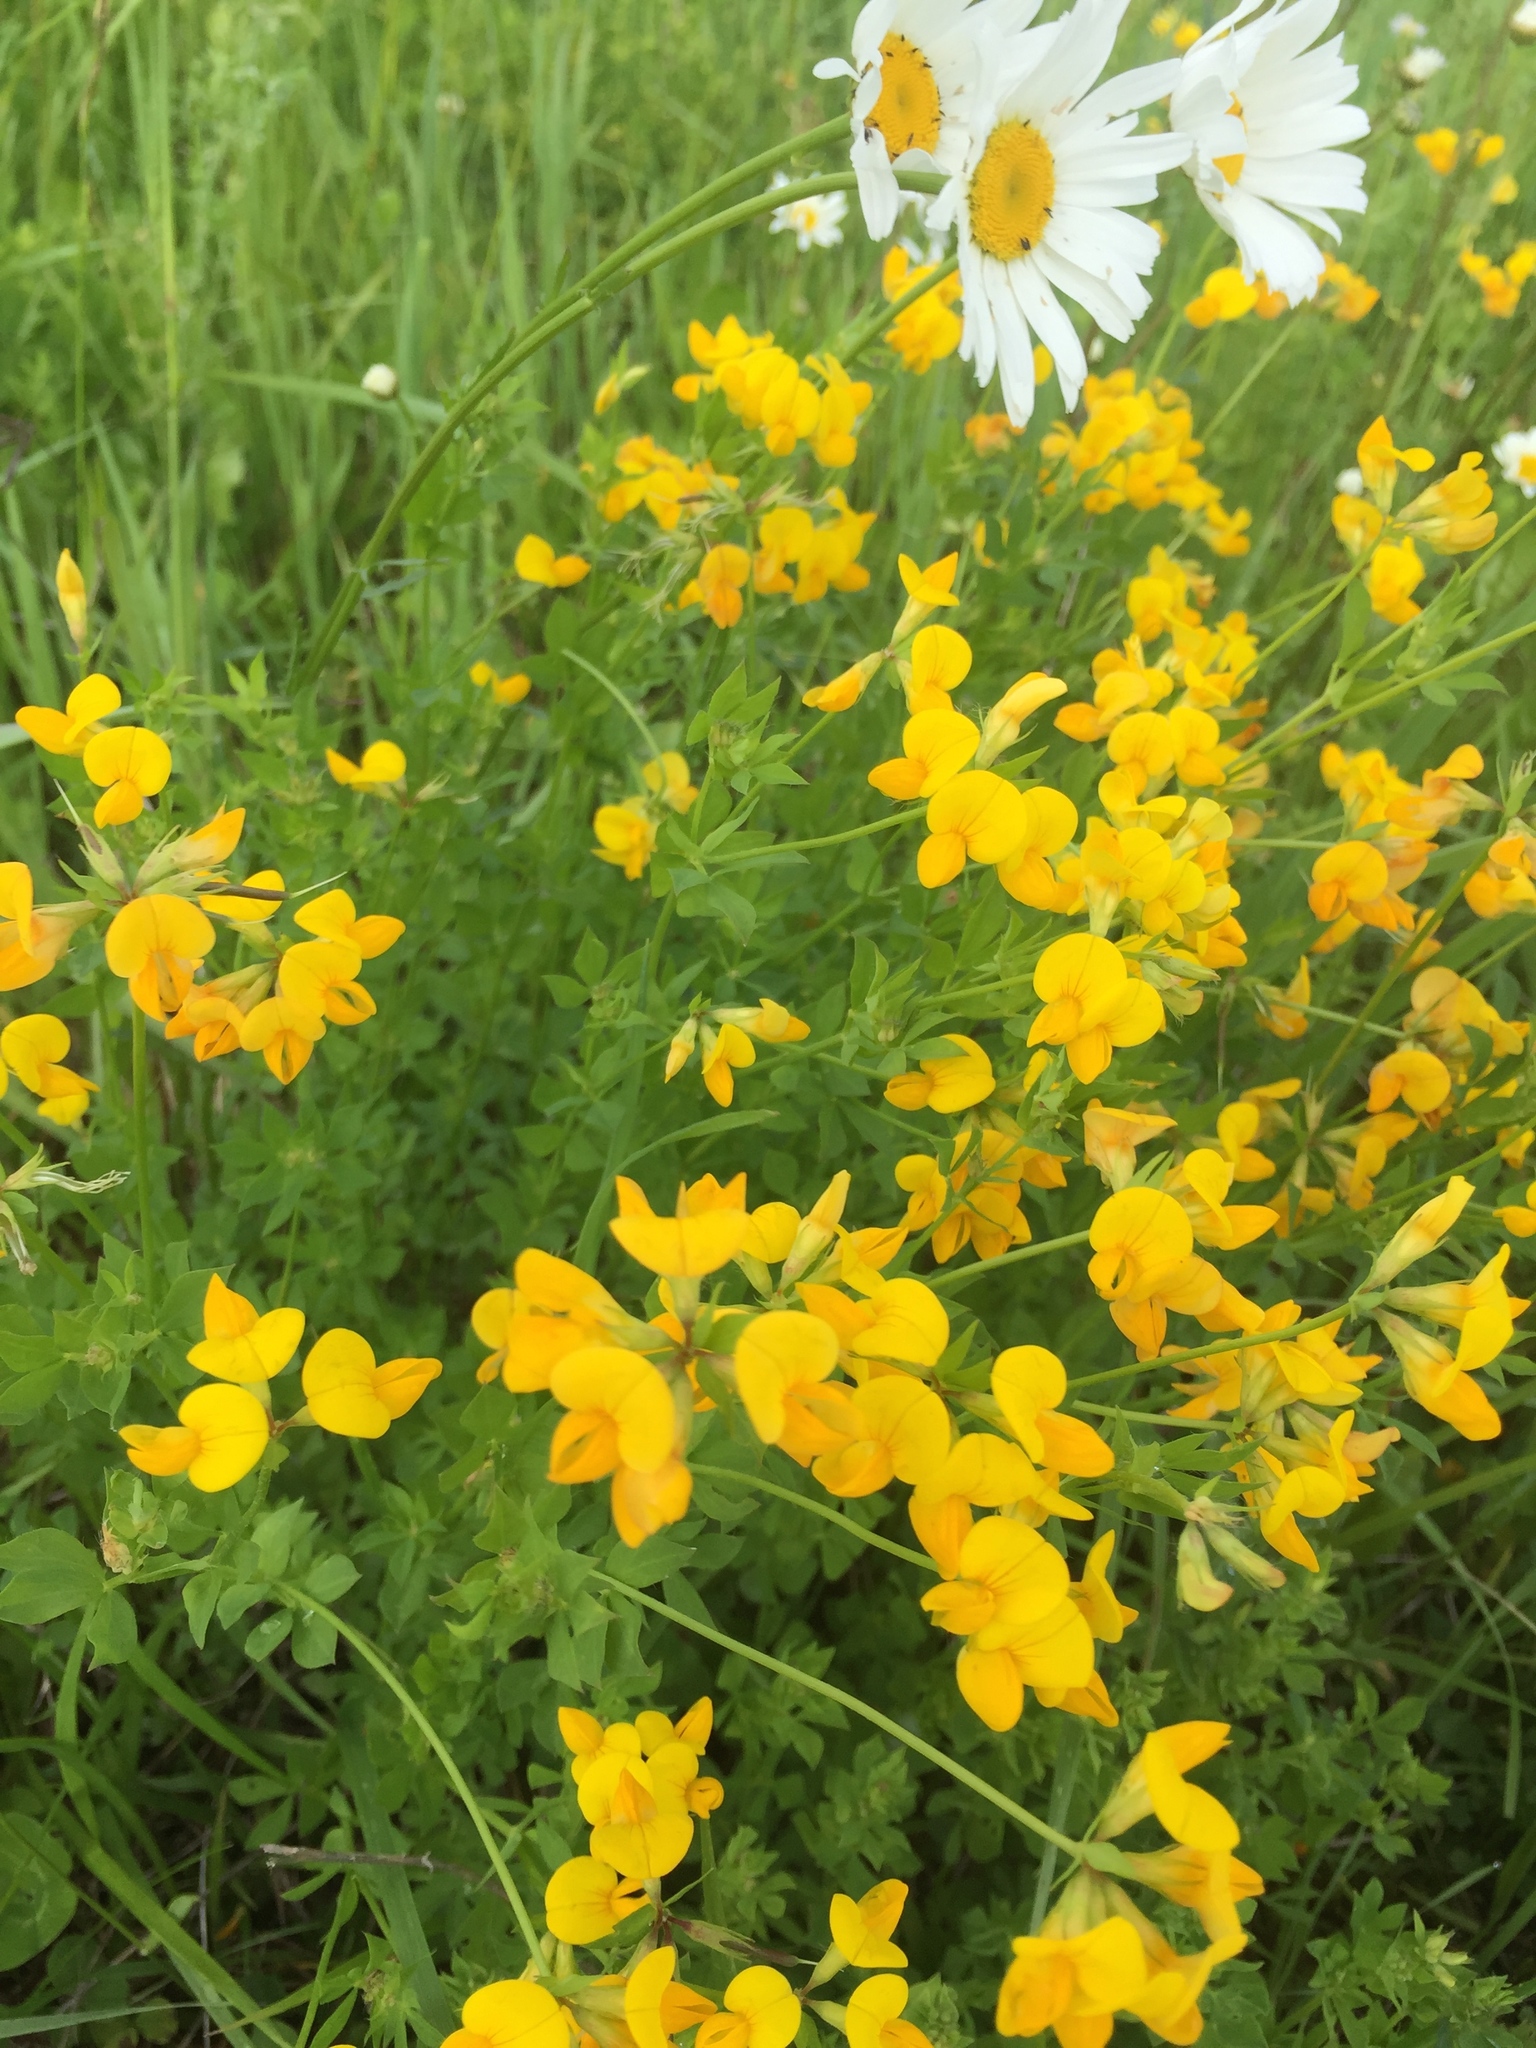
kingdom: Plantae
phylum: Tracheophyta
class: Magnoliopsida
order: Fabales
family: Fabaceae
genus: Lotus
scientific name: Lotus corniculatus
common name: Common bird's-foot-trefoil
